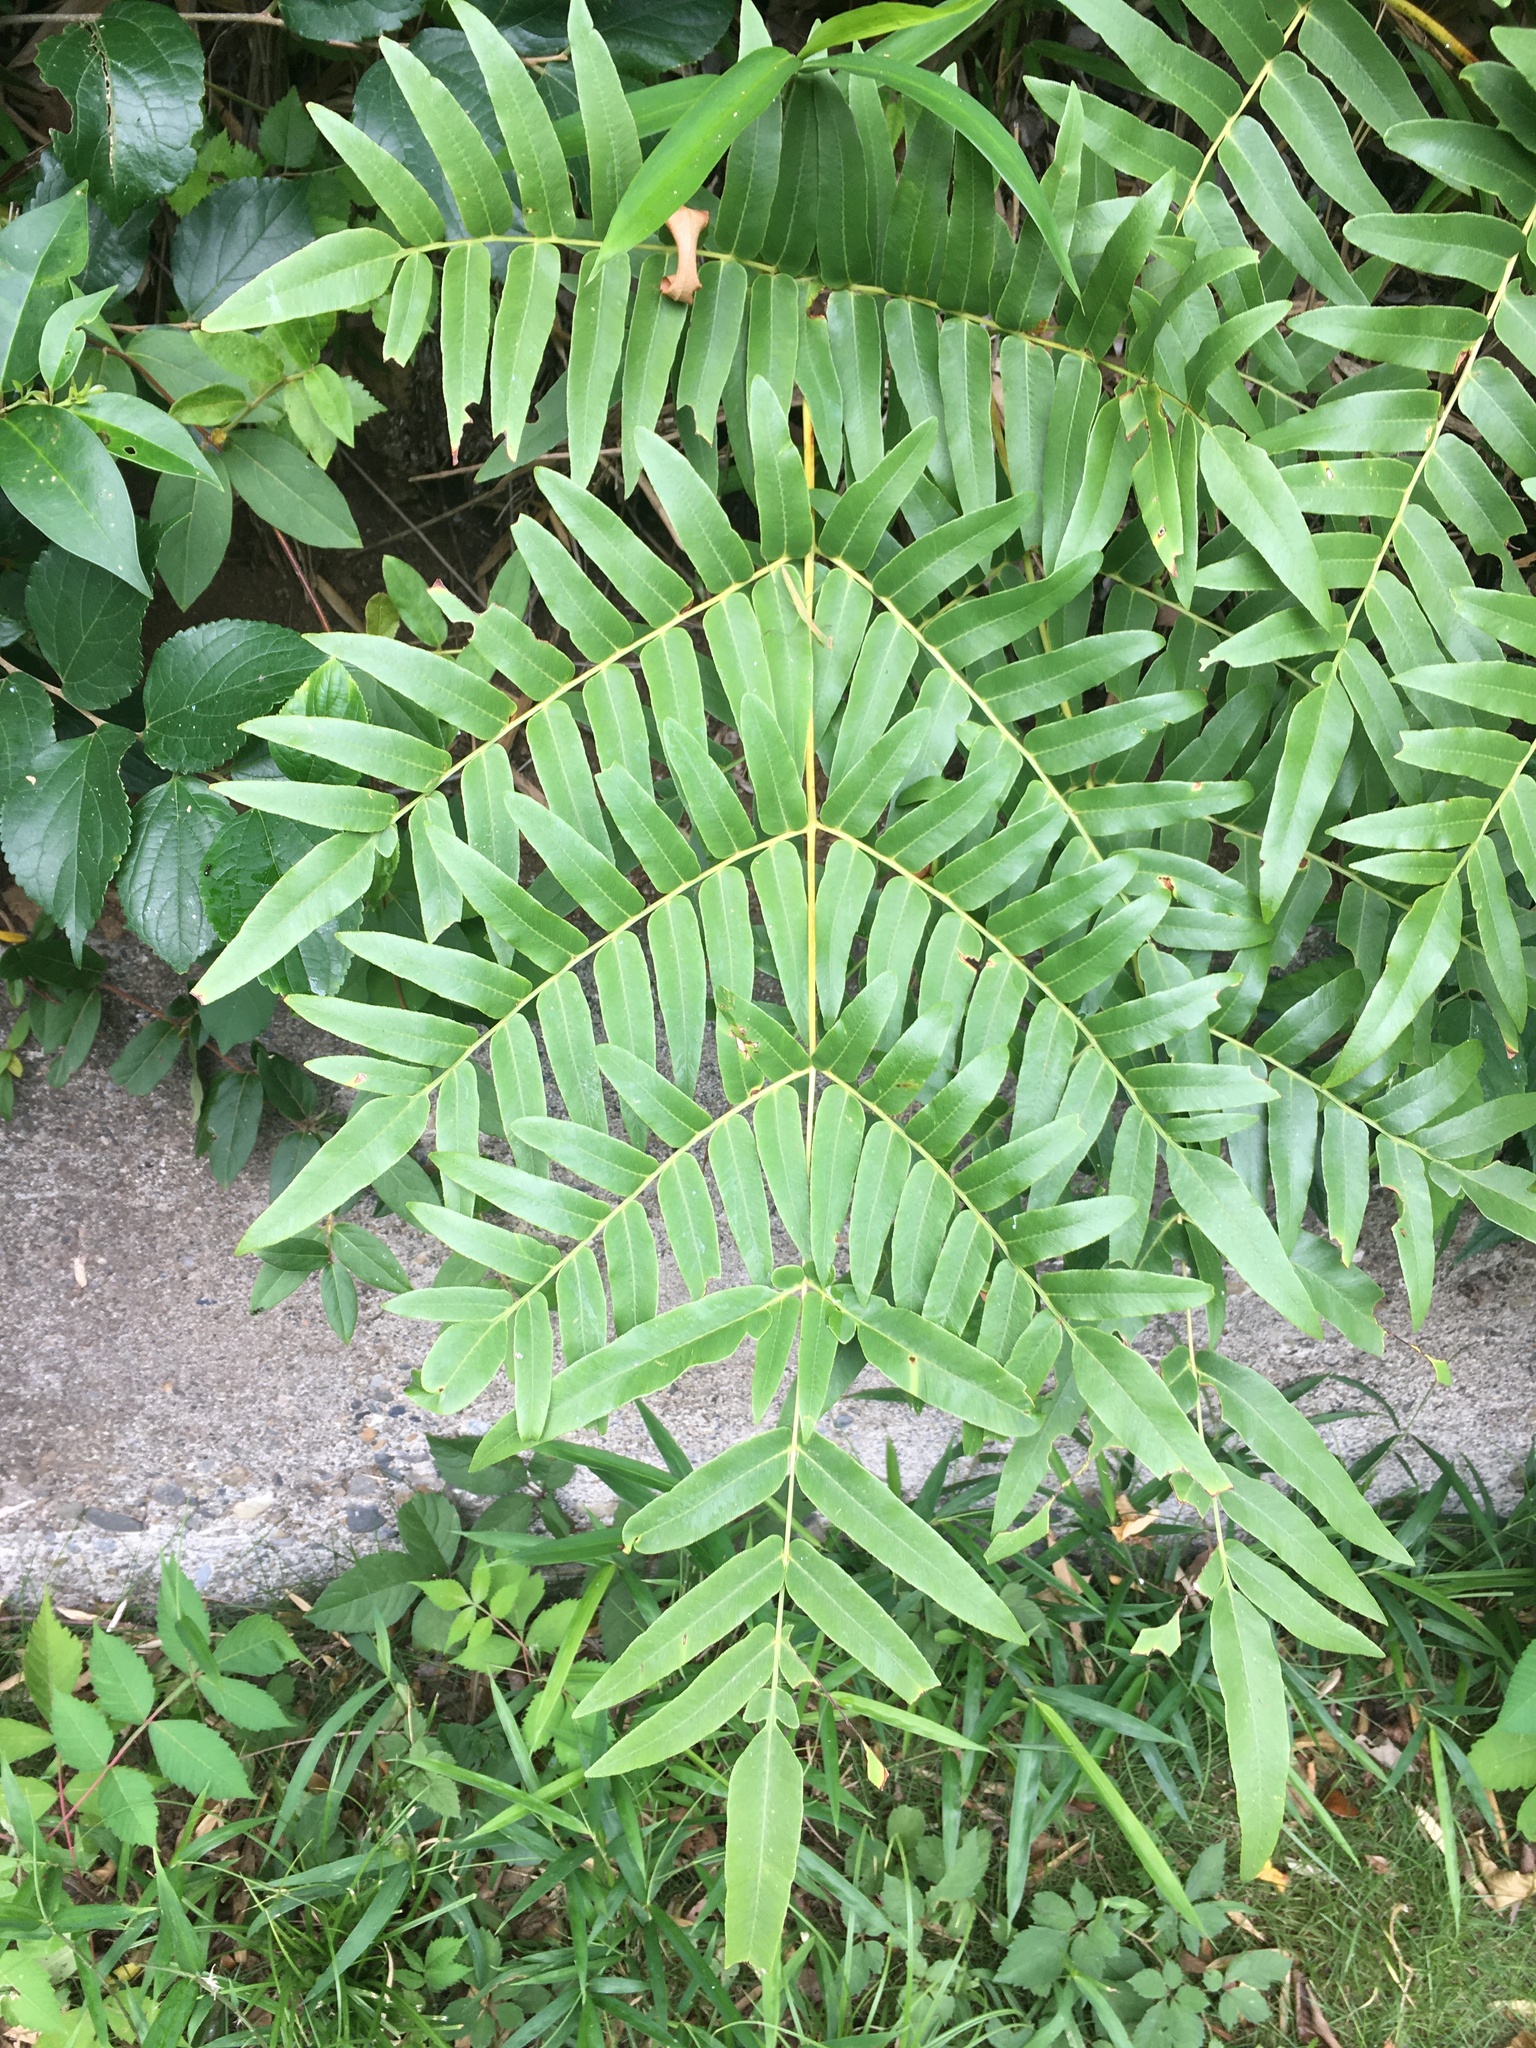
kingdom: Plantae
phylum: Tracheophyta
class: Polypodiopsida
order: Osmundales
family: Osmundaceae
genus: Osmunda
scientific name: Osmunda japonica
